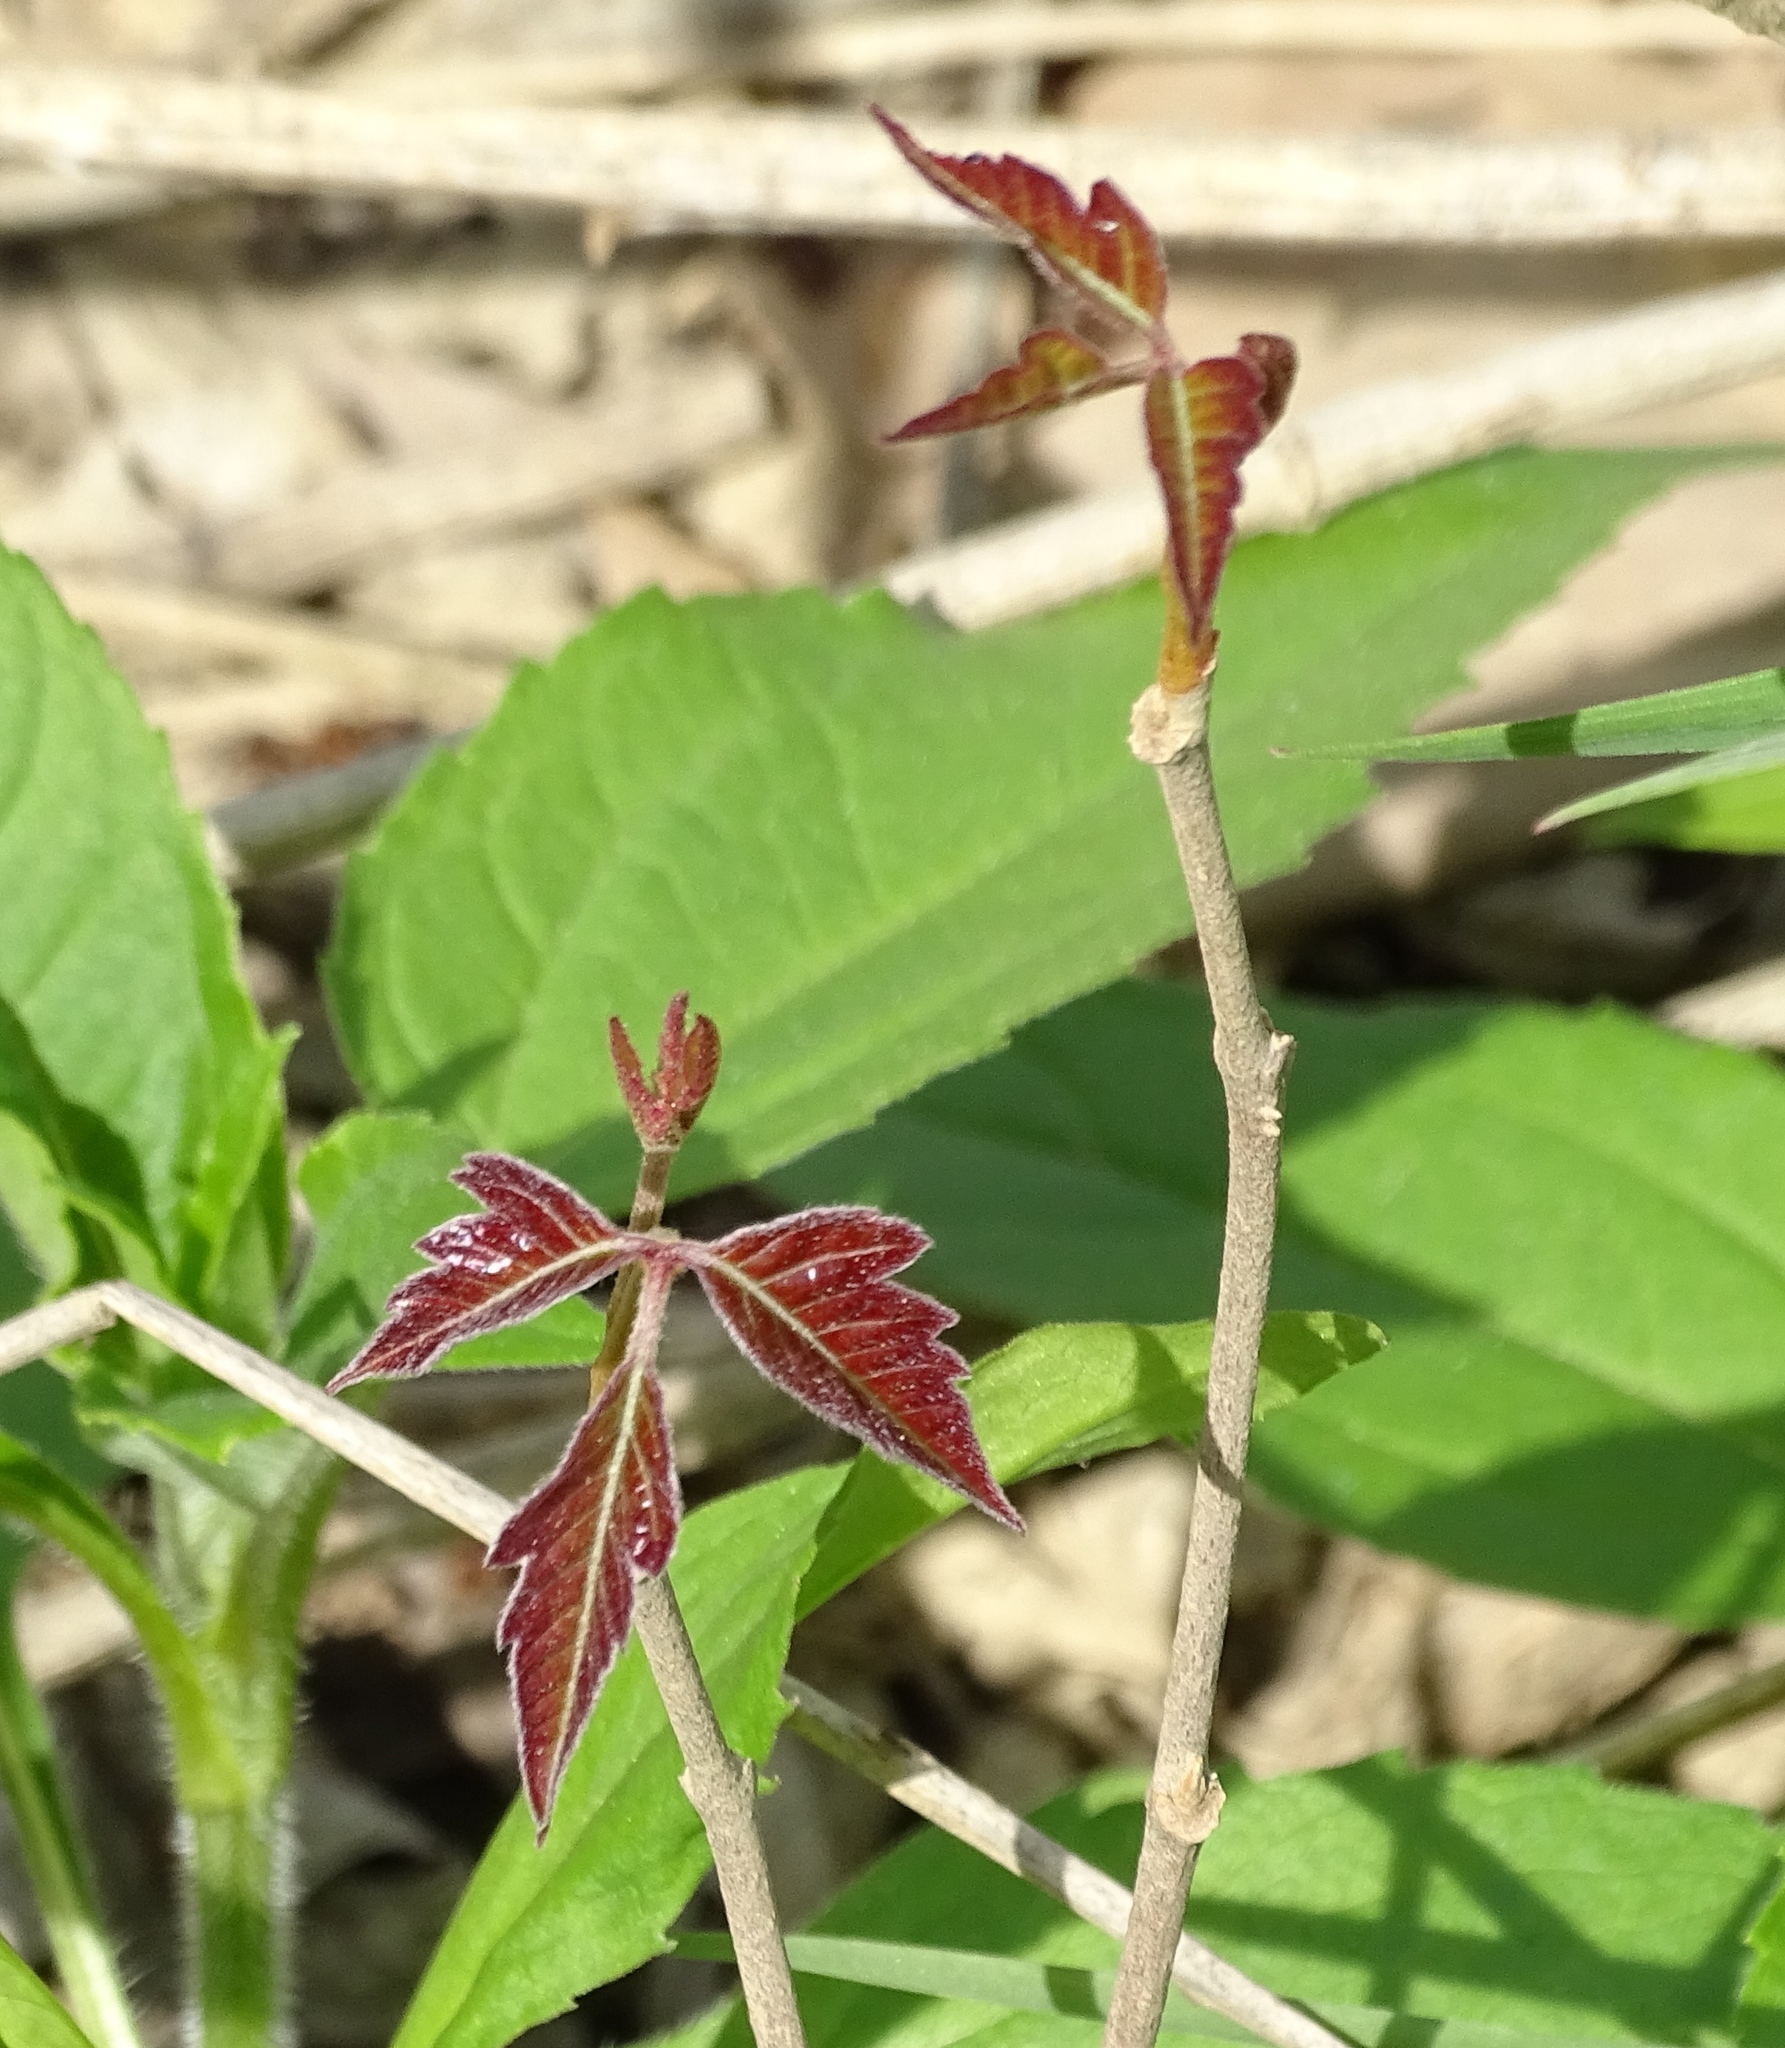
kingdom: Plantae
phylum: Tracheophyta
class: Magnoliopsida
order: Sapindales
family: Anacardiaceae
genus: Toxicodendron
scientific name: Toxicodendron radicans
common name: Poison ivy
